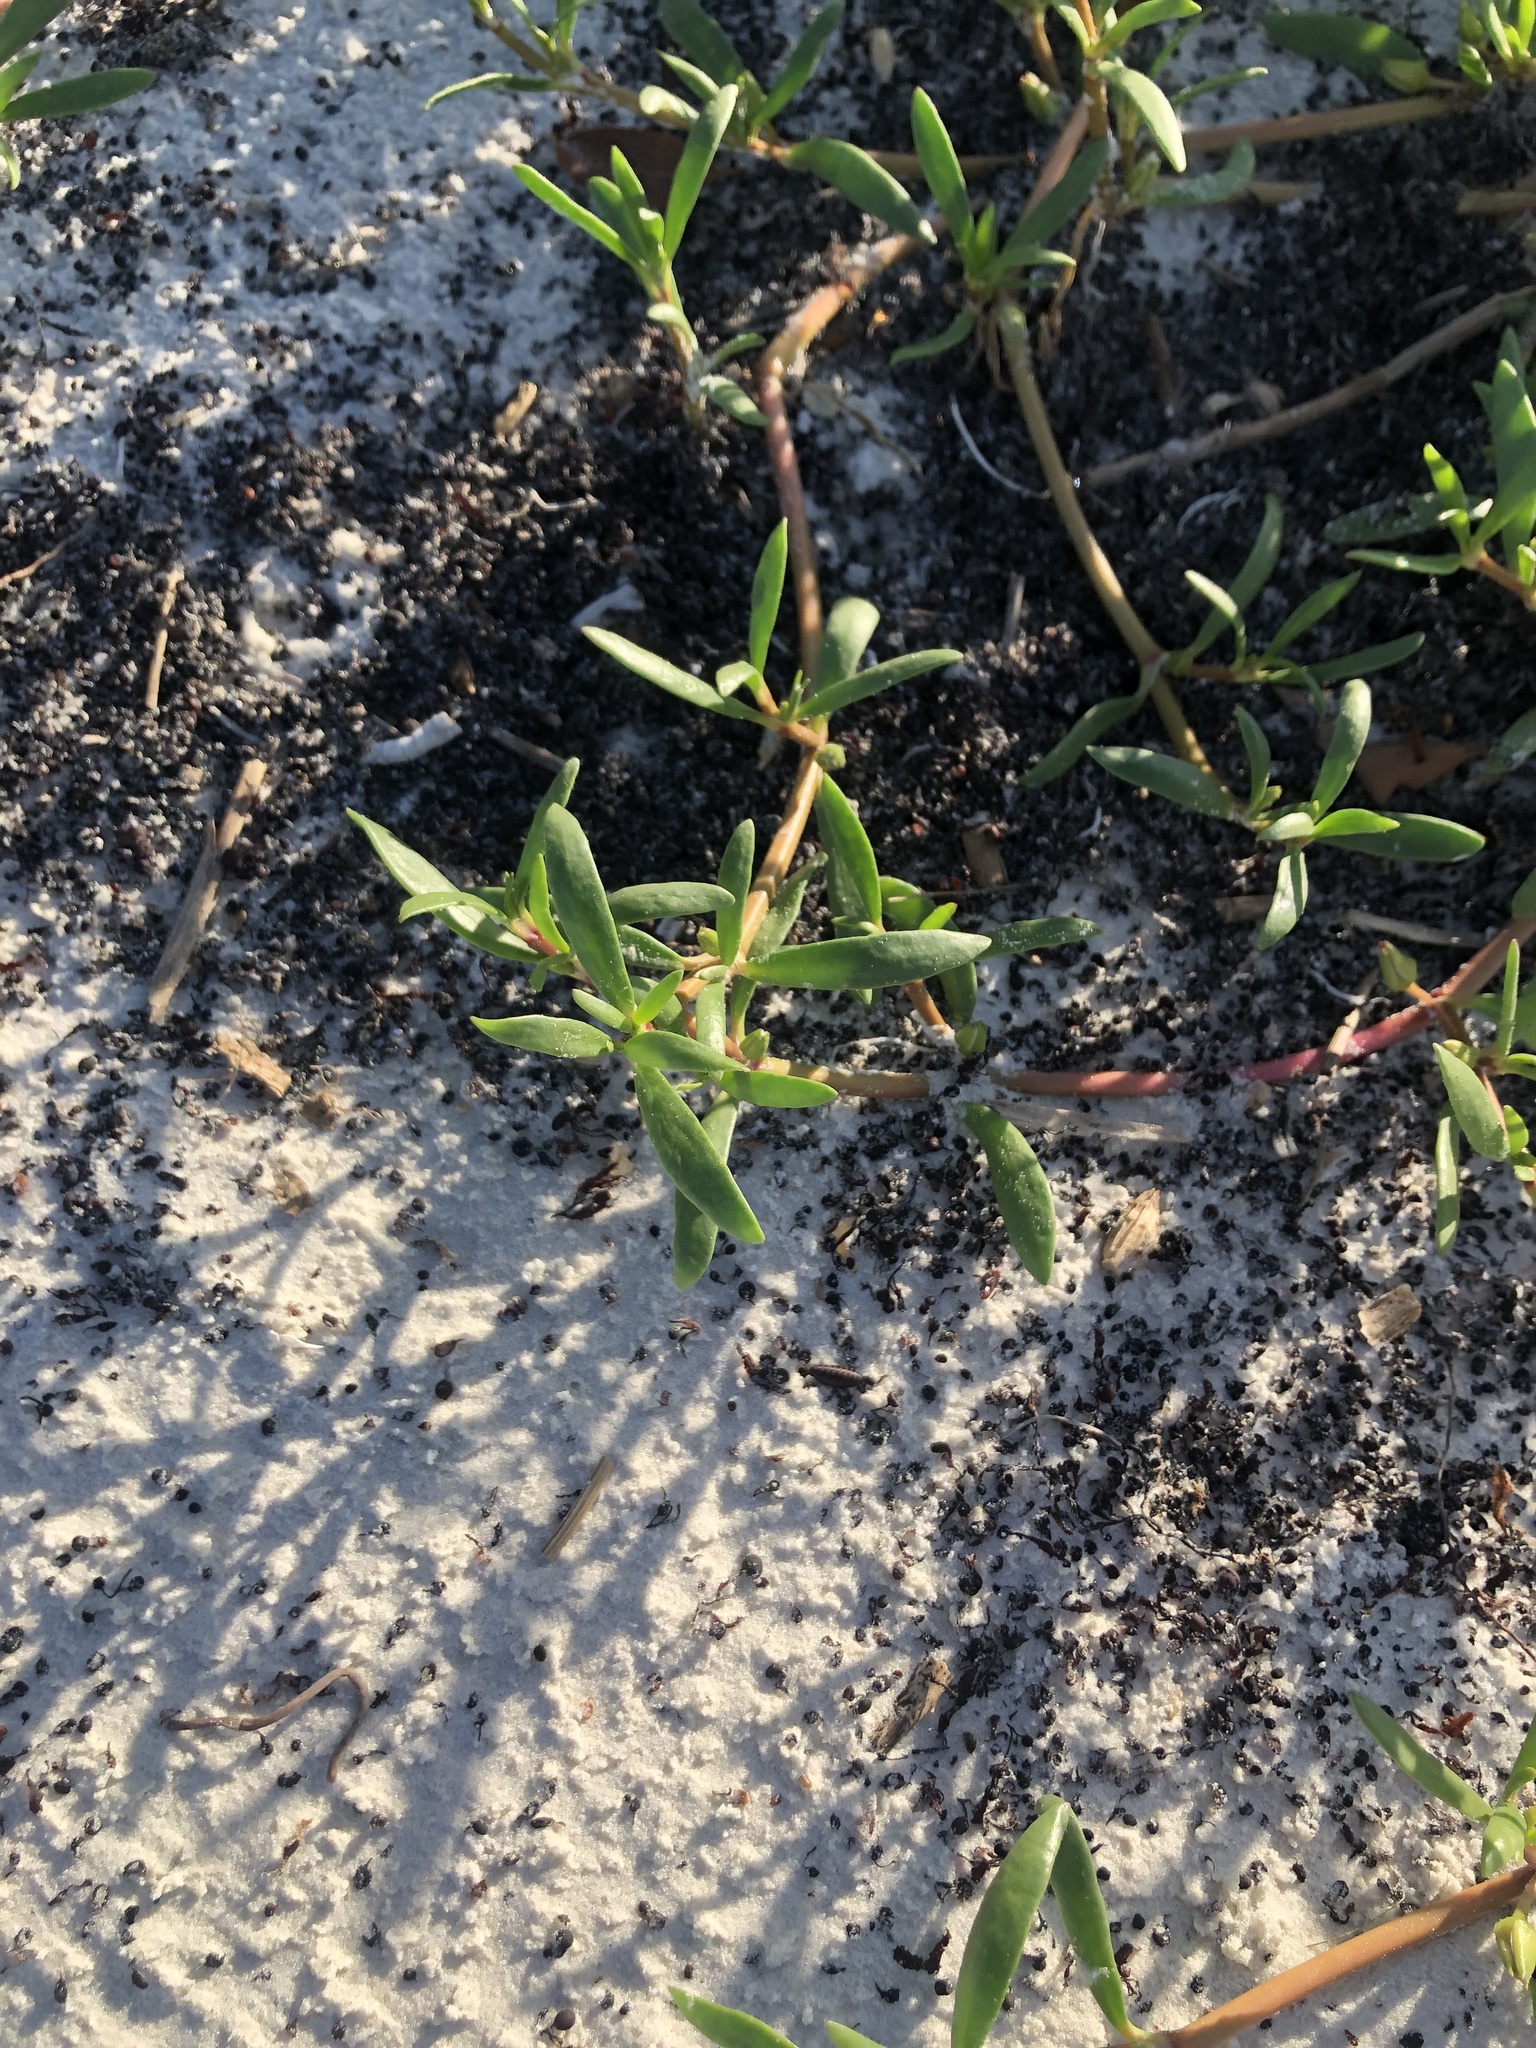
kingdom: Plantae
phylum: Tracheophyta
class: Magnoliopsida
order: Caryophyllales
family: Aizoaceae
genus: Sesuvium
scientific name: Sesuvium portulacastrum
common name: Sea-purslane
